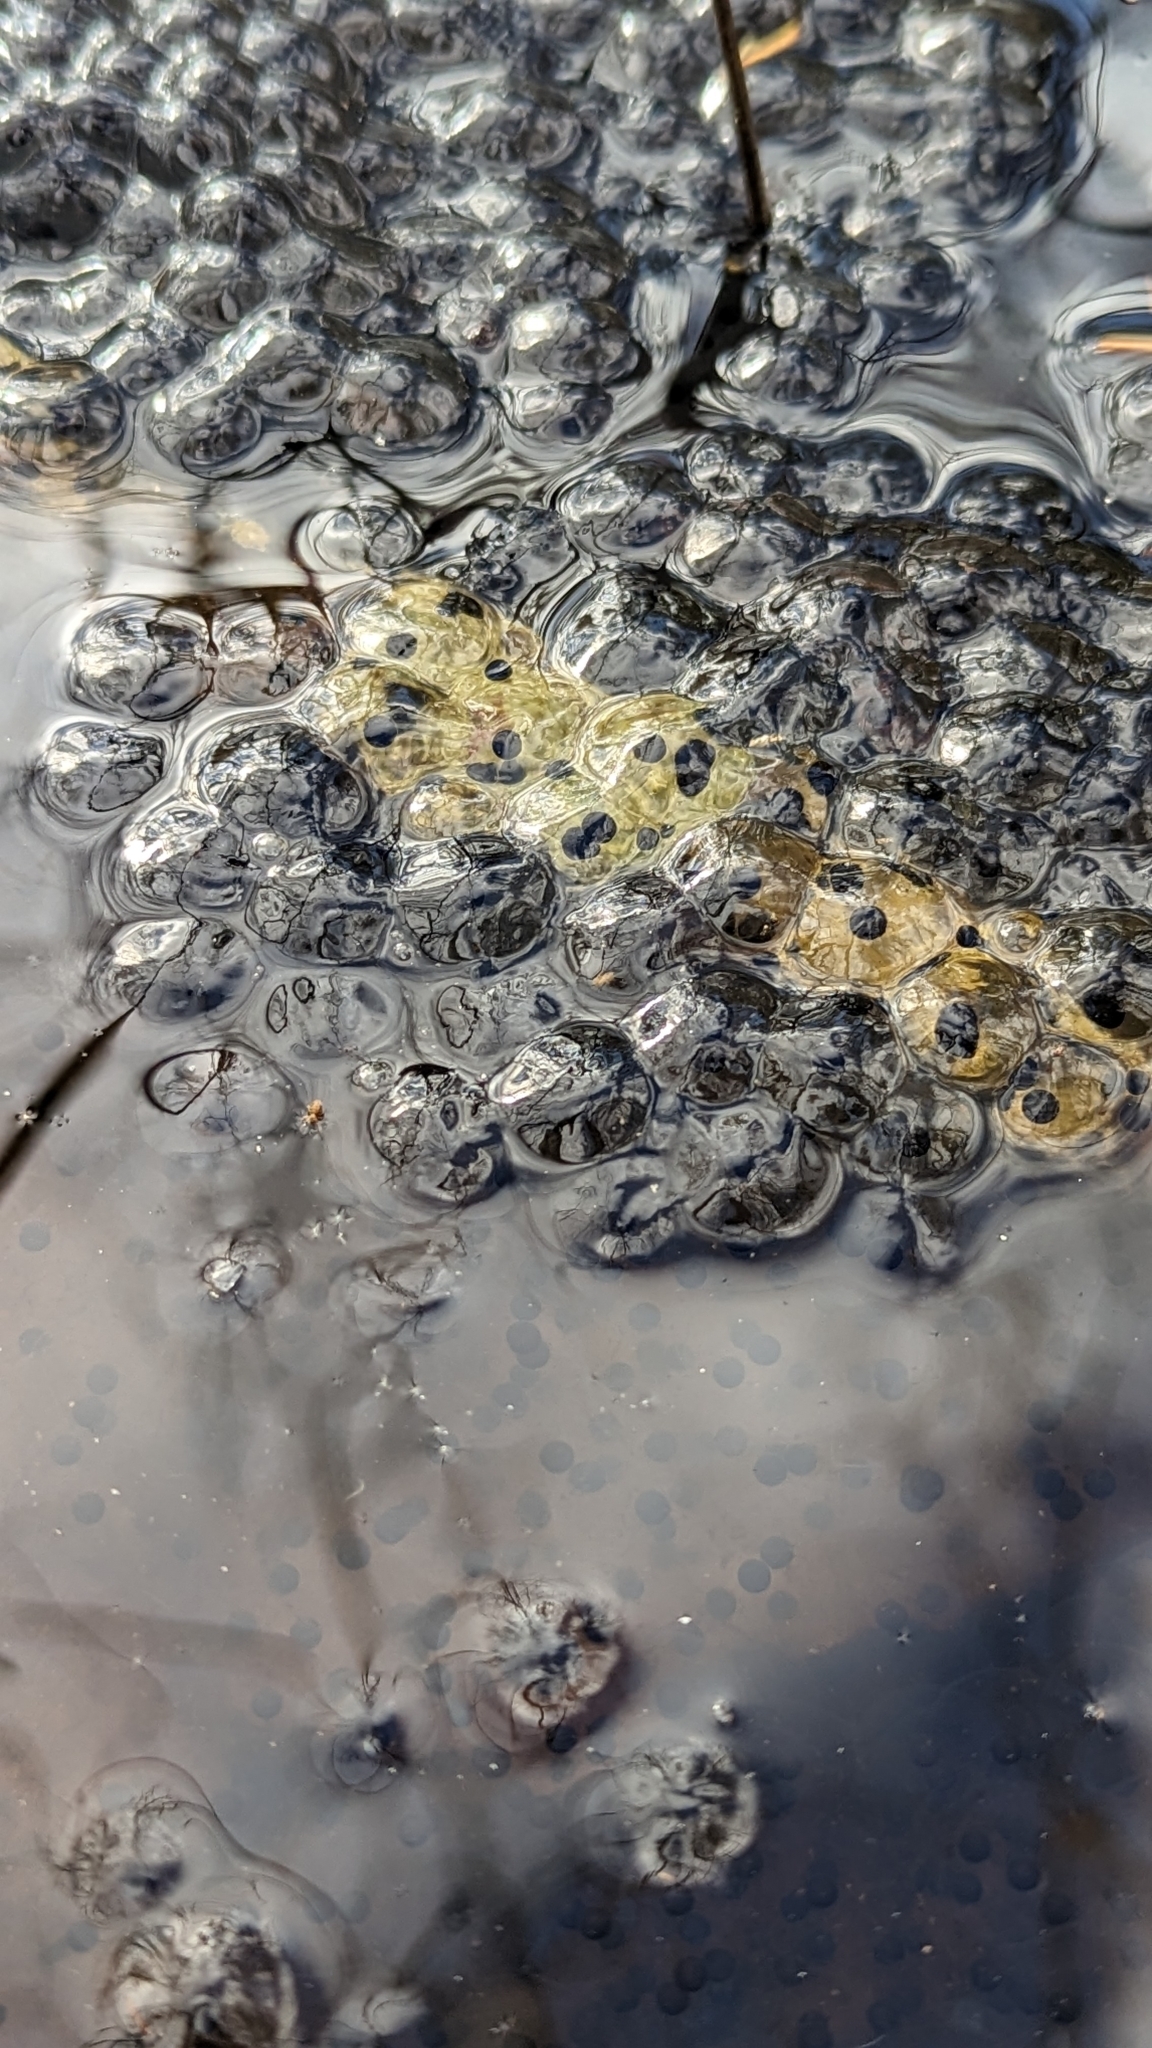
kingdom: Animalia
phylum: Chordata
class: Amphibia
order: Anura
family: Ranidae
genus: Lithobates
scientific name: Lithobates sylvaticus
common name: Wood frog
